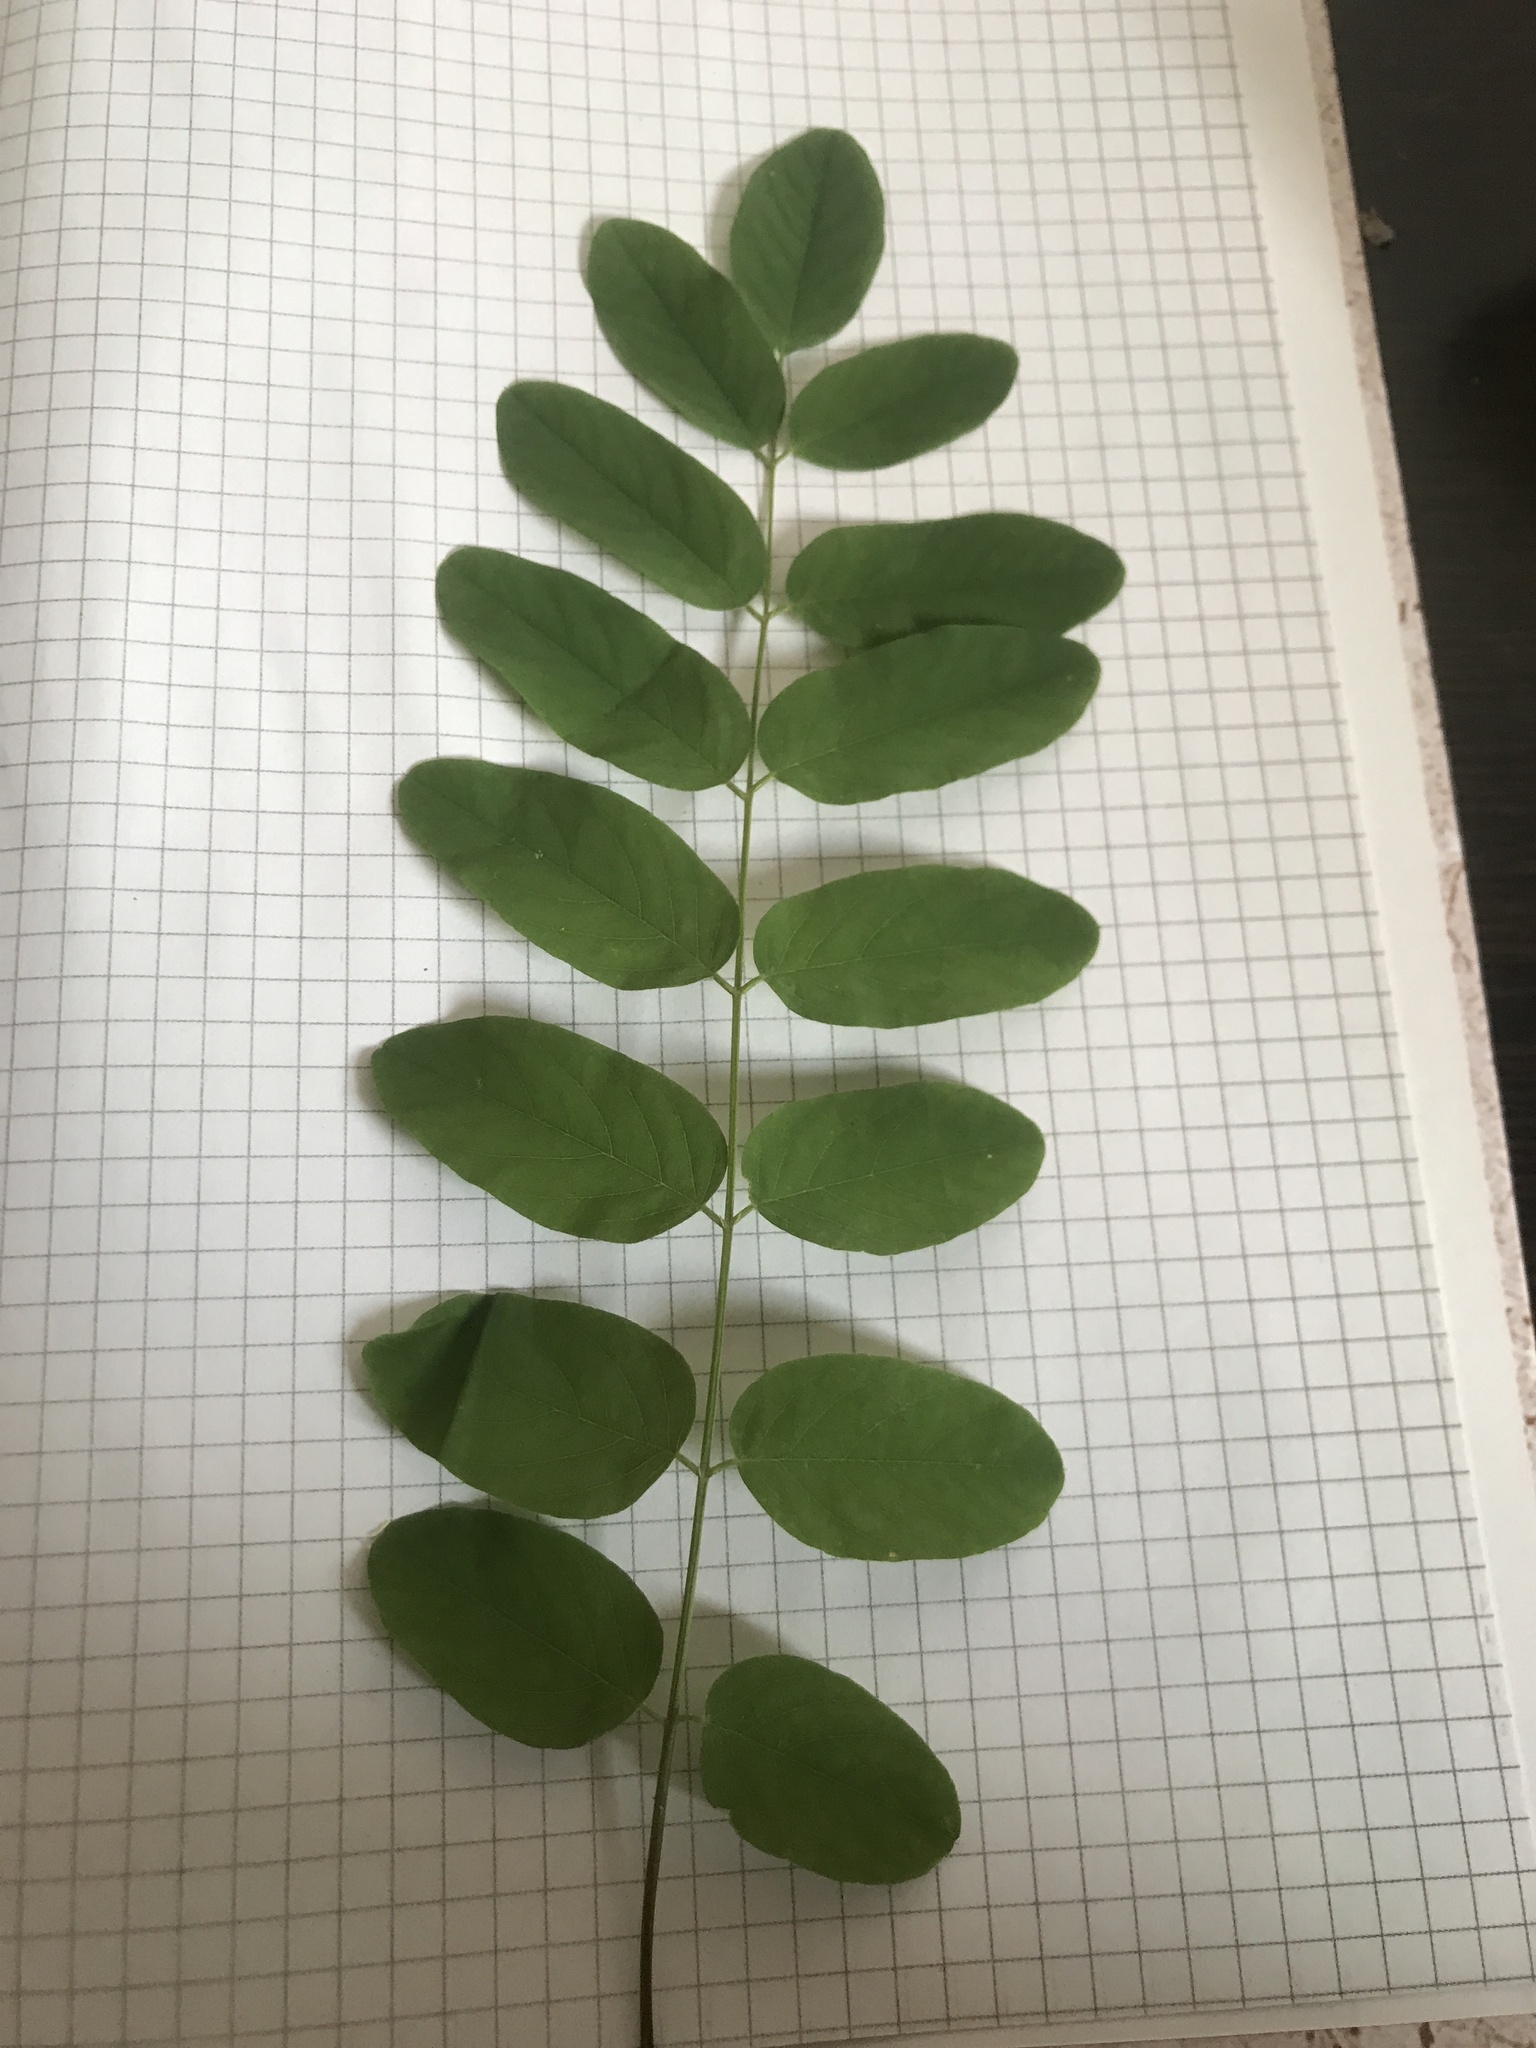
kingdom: Plantae
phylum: Tracheophyta
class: Magnoliopsida
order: Fabales
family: Fabaceae
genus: Robinia
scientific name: Robinia pseudoacacia
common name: Black locust
